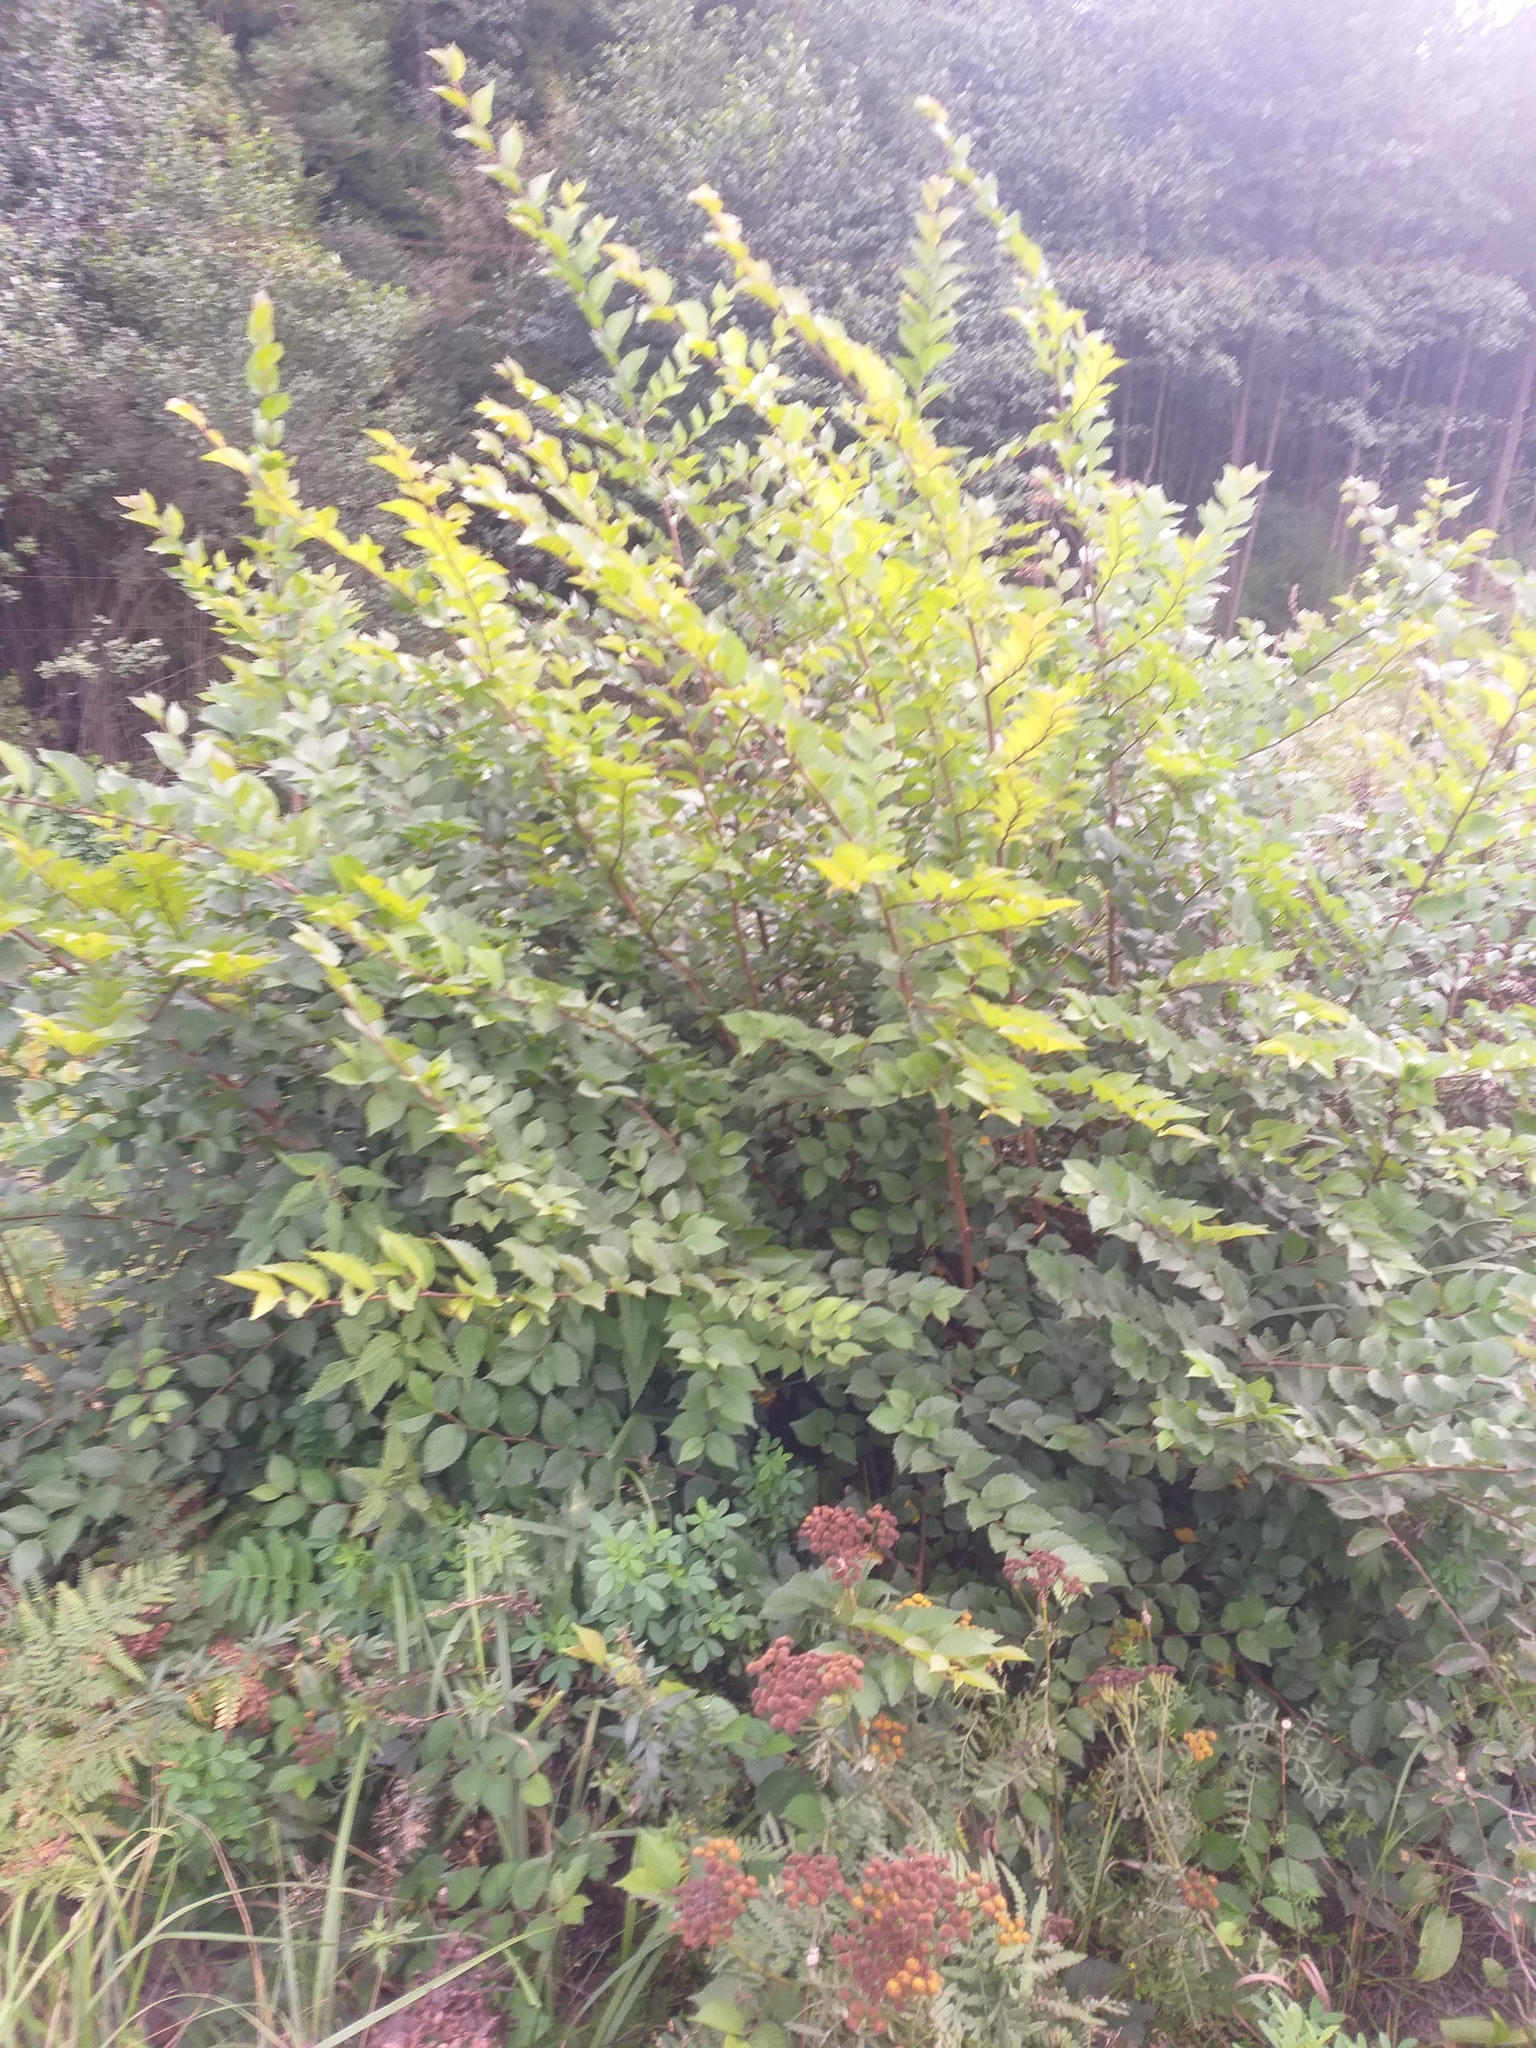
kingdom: Plantae
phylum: Tracheophyta
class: Magnoliopsida
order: Rosales
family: Ulmaceae
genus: Ulmus
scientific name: Ulmus pumila
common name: Siberian elm
